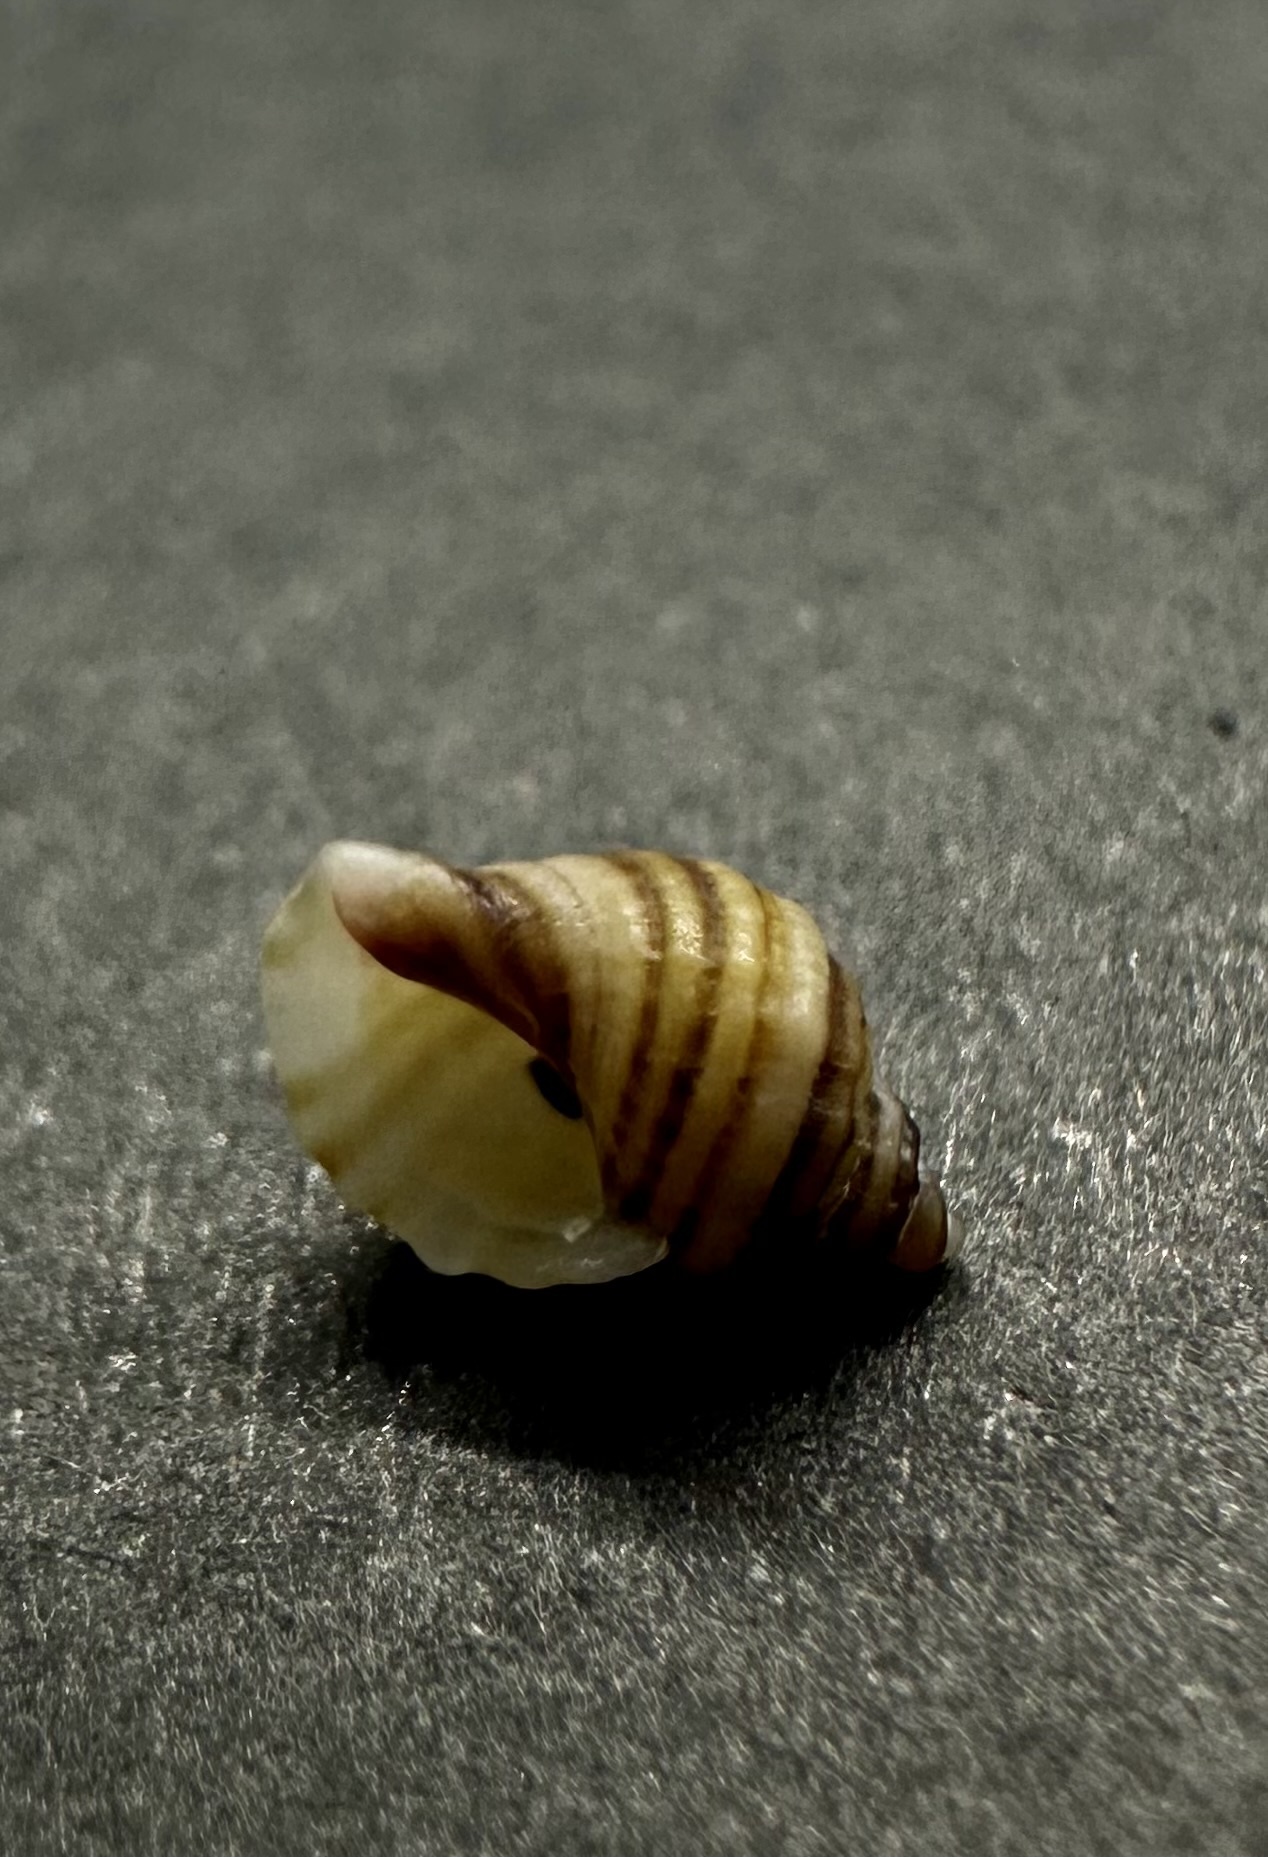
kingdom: Animalia
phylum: Mollusca
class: Gastropoda
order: Neogastropoda
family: Muricidae
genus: Nucella
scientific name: Nucella lapillus
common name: Dog whelk
